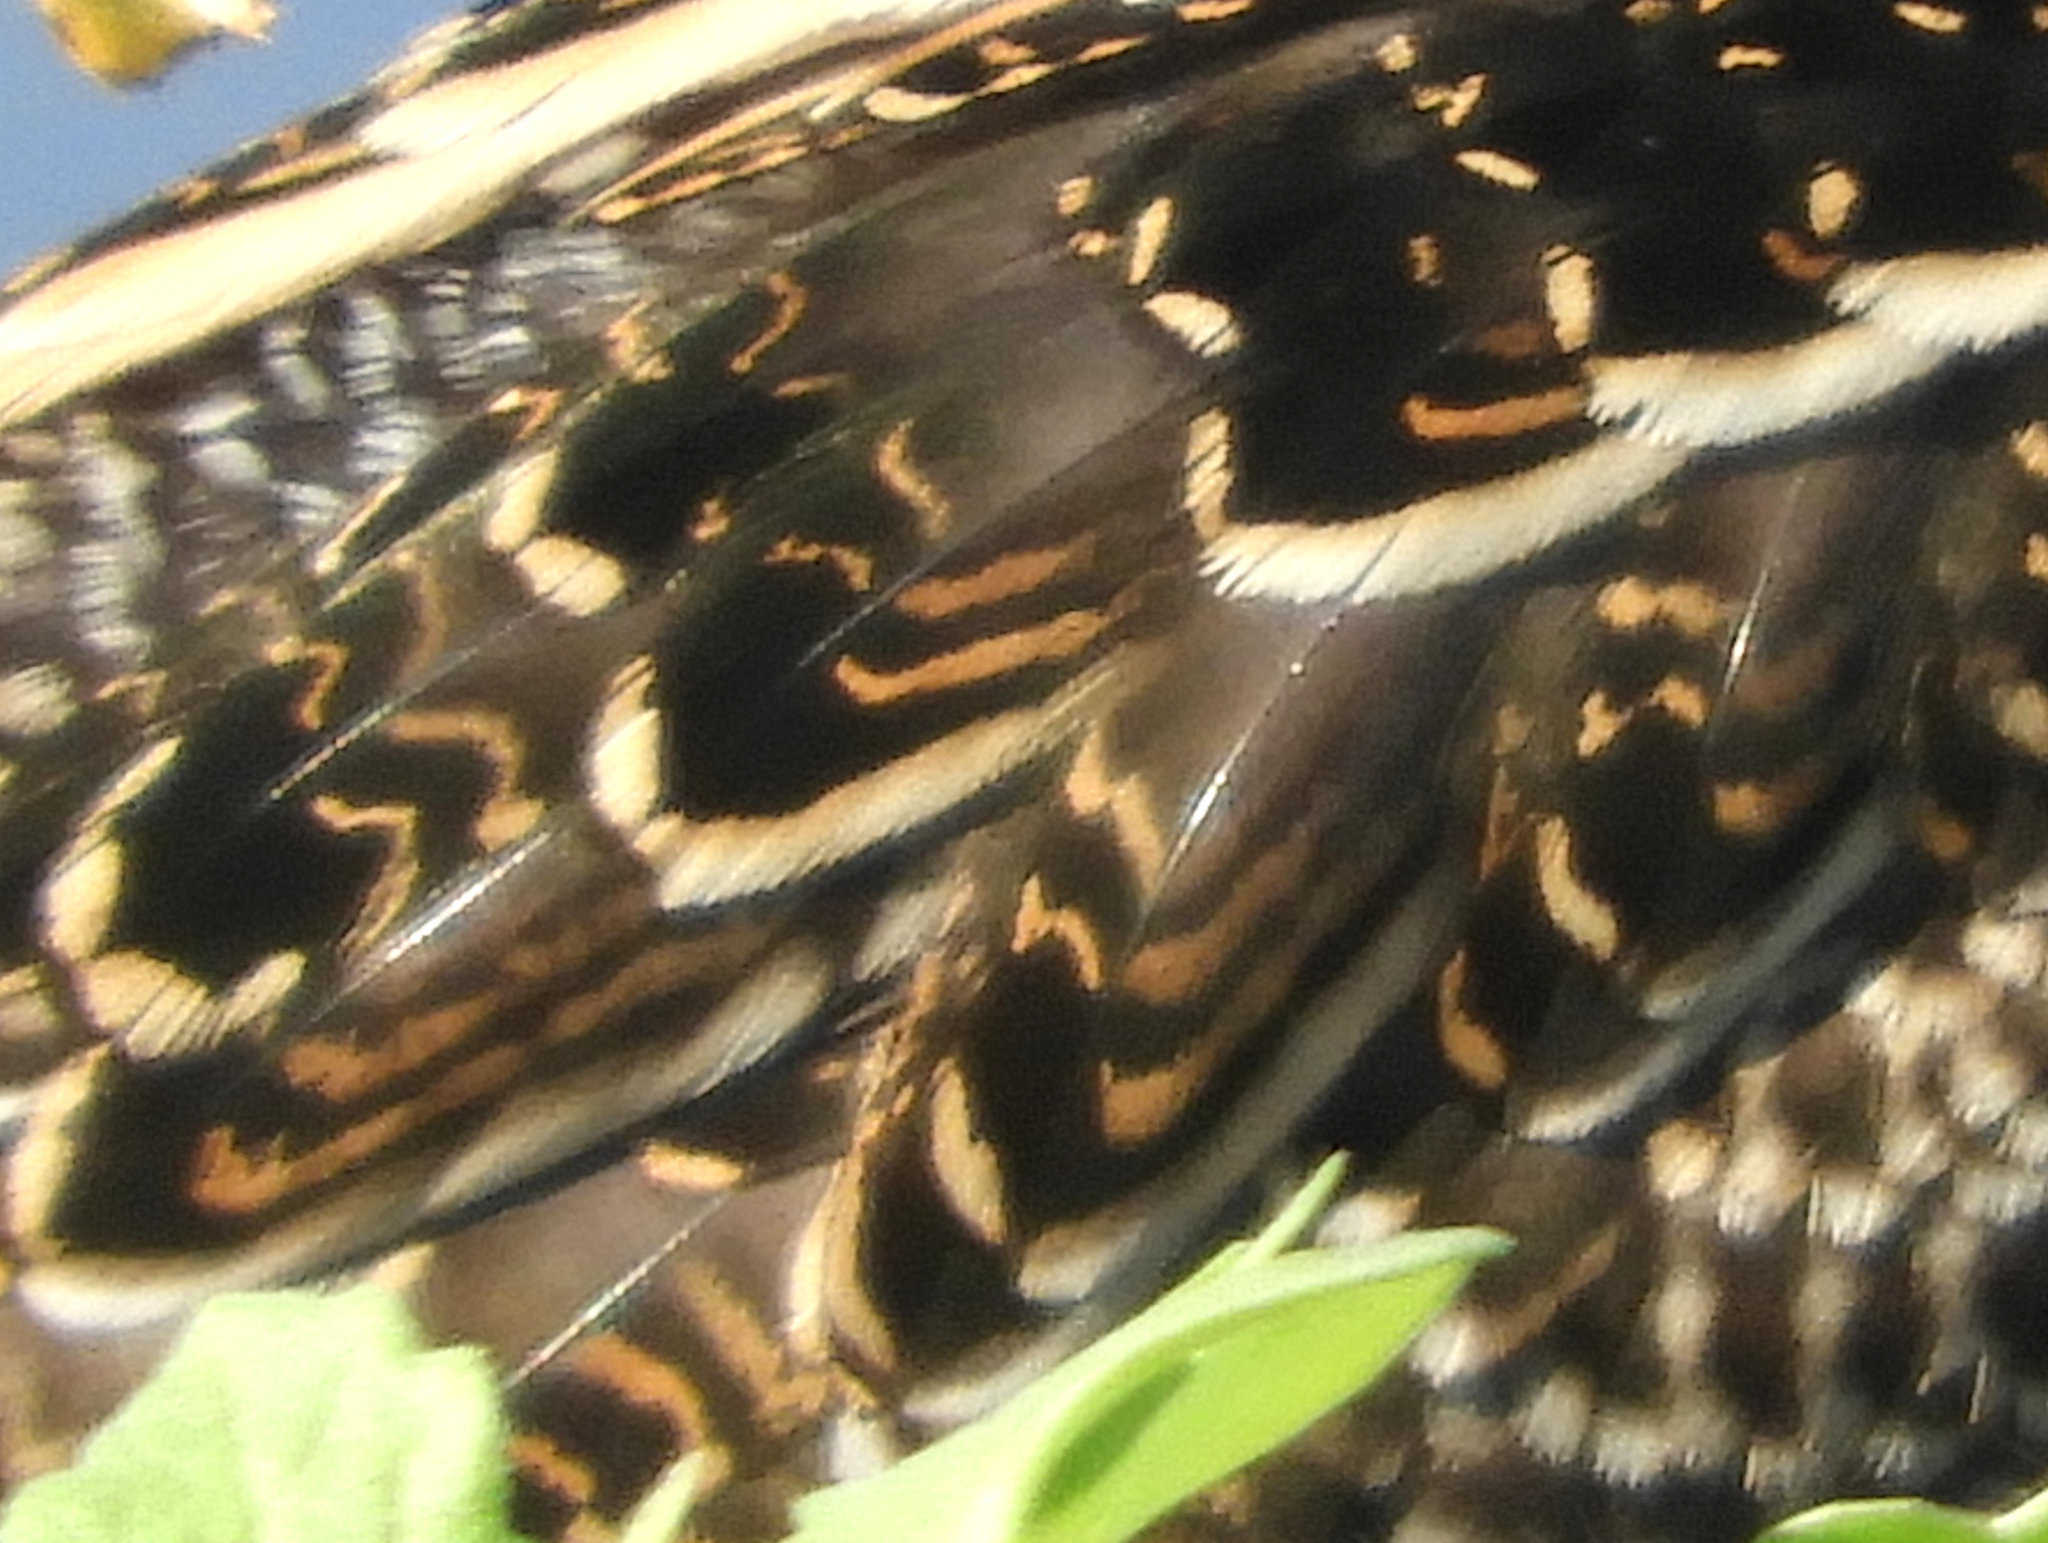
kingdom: Animalia
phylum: Chordata
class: Aves
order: Charadriiformes
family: Scolopacidae
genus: Gallinago
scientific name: Gallinago delicata
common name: Wilson's snipe
